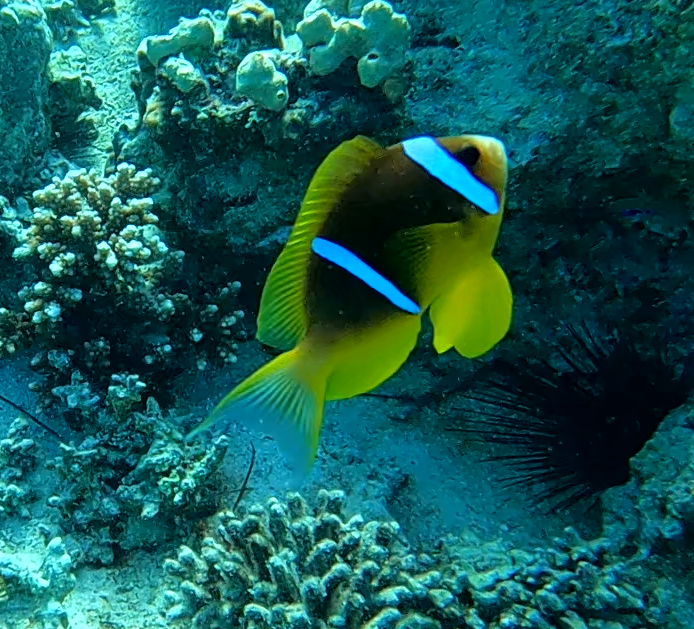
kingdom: Animalia
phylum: Chordata
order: Perciformes
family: Pomacentridae
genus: Amphiprion
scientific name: Amphiprion bicinctus
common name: Two-banded anemonefish
